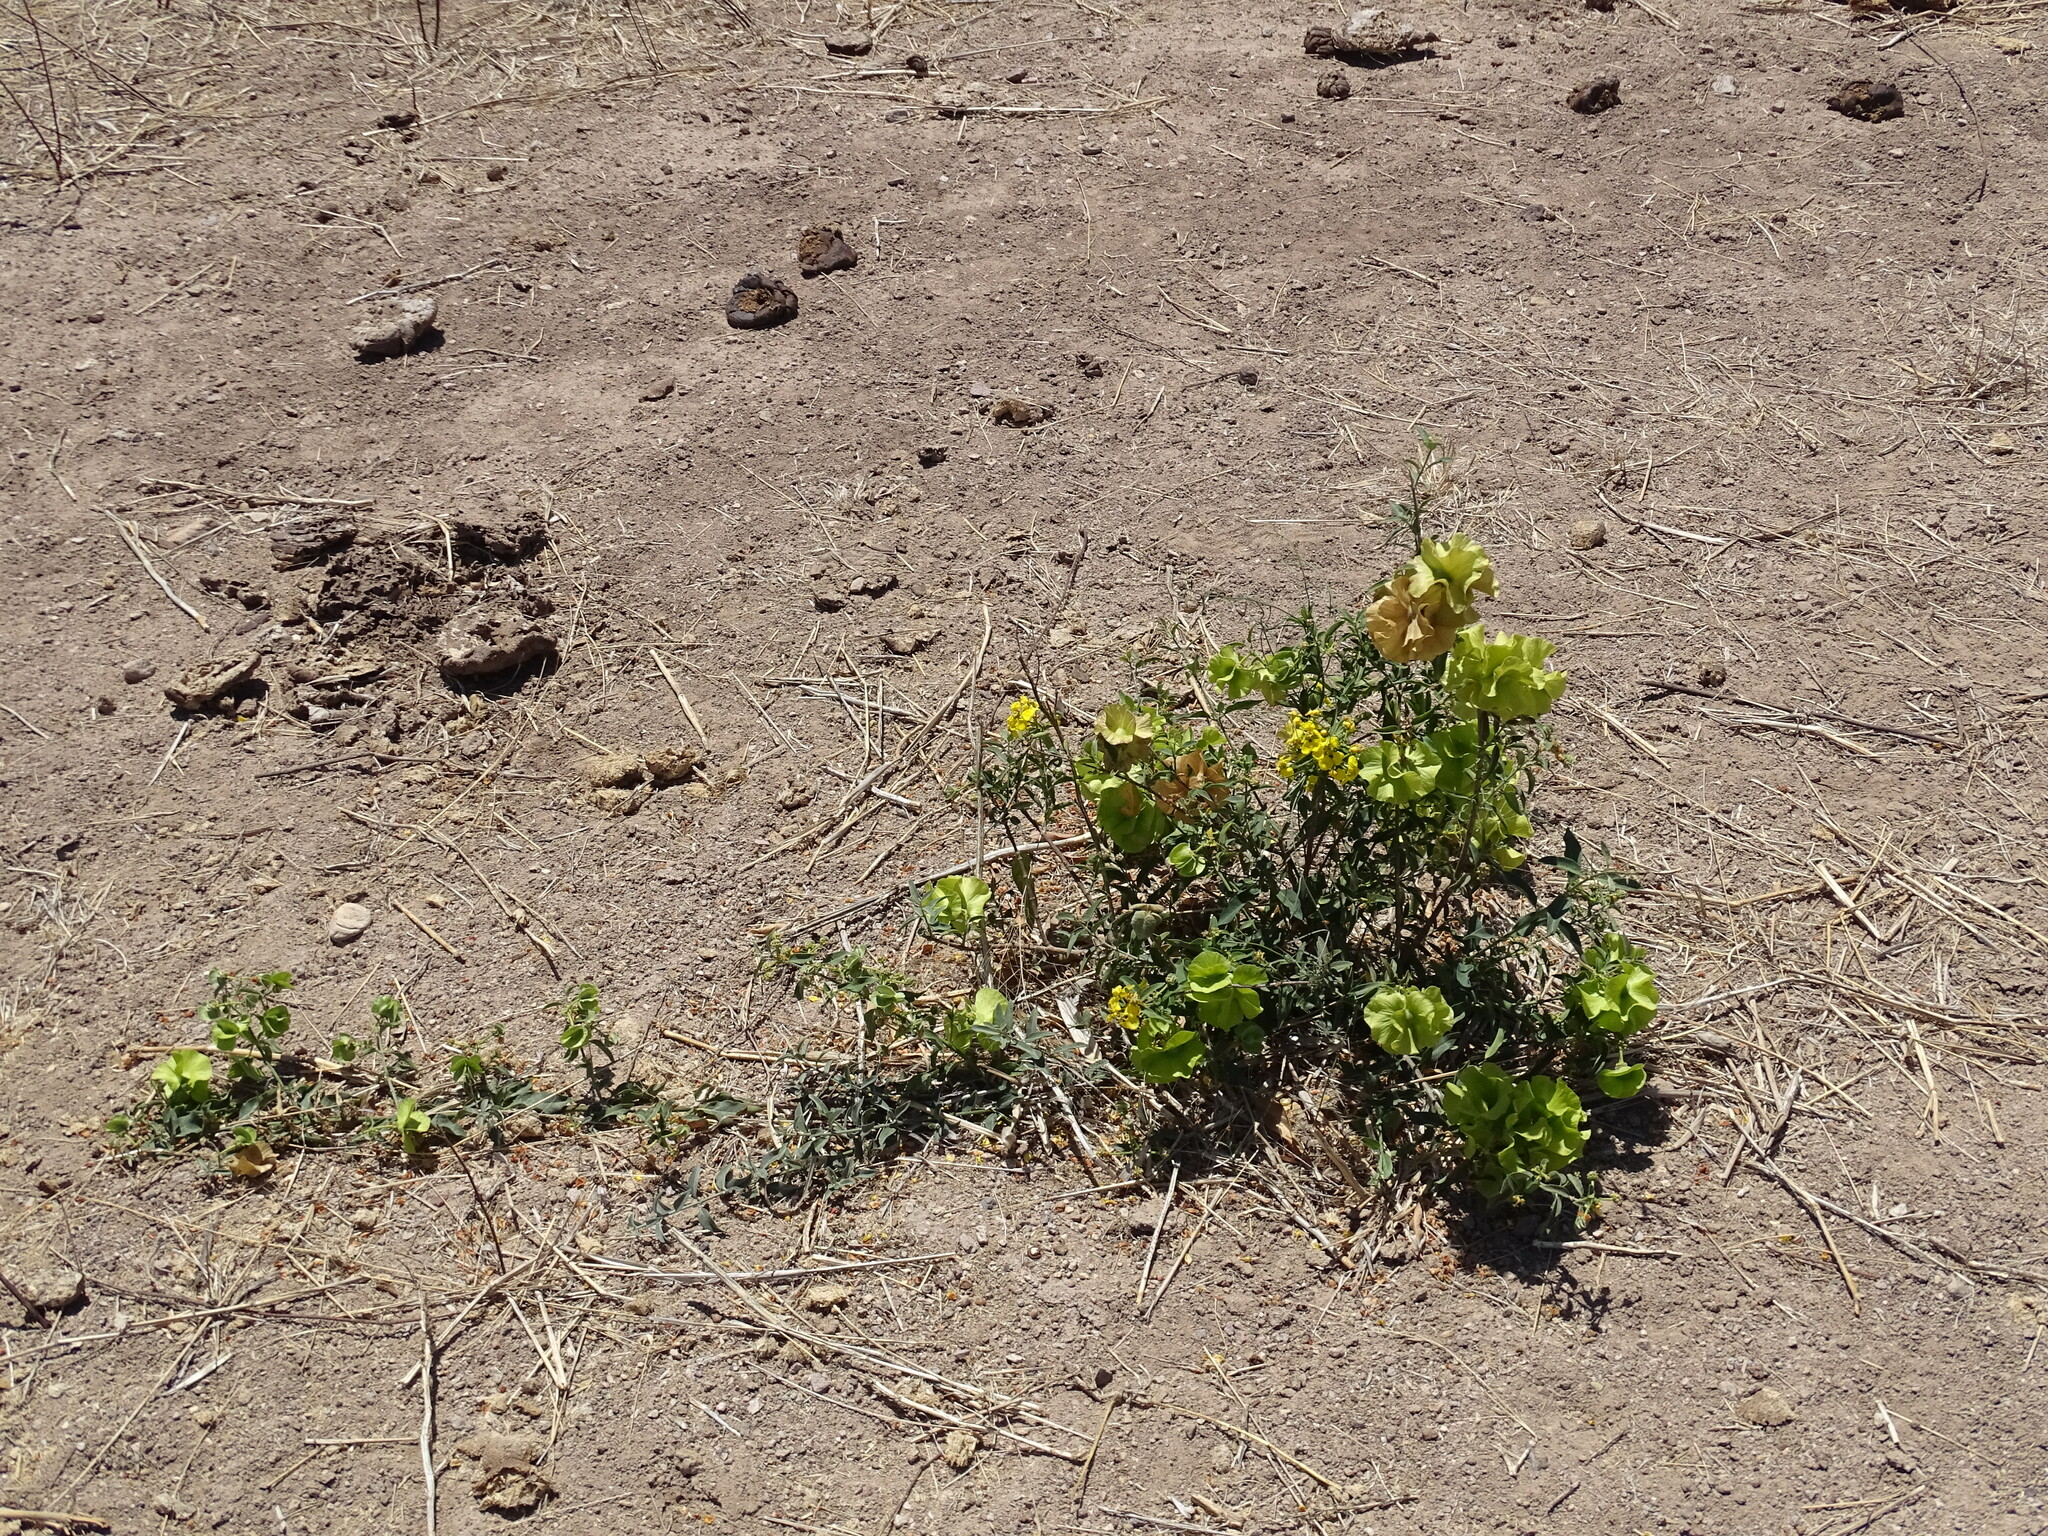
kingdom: Plantae
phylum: Tracheophyta
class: Magnoliopsida
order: Malpighiales
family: Malpighiaceae
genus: Callaeum
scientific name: Callaeum macropterum
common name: Mexican butterfly-vine
